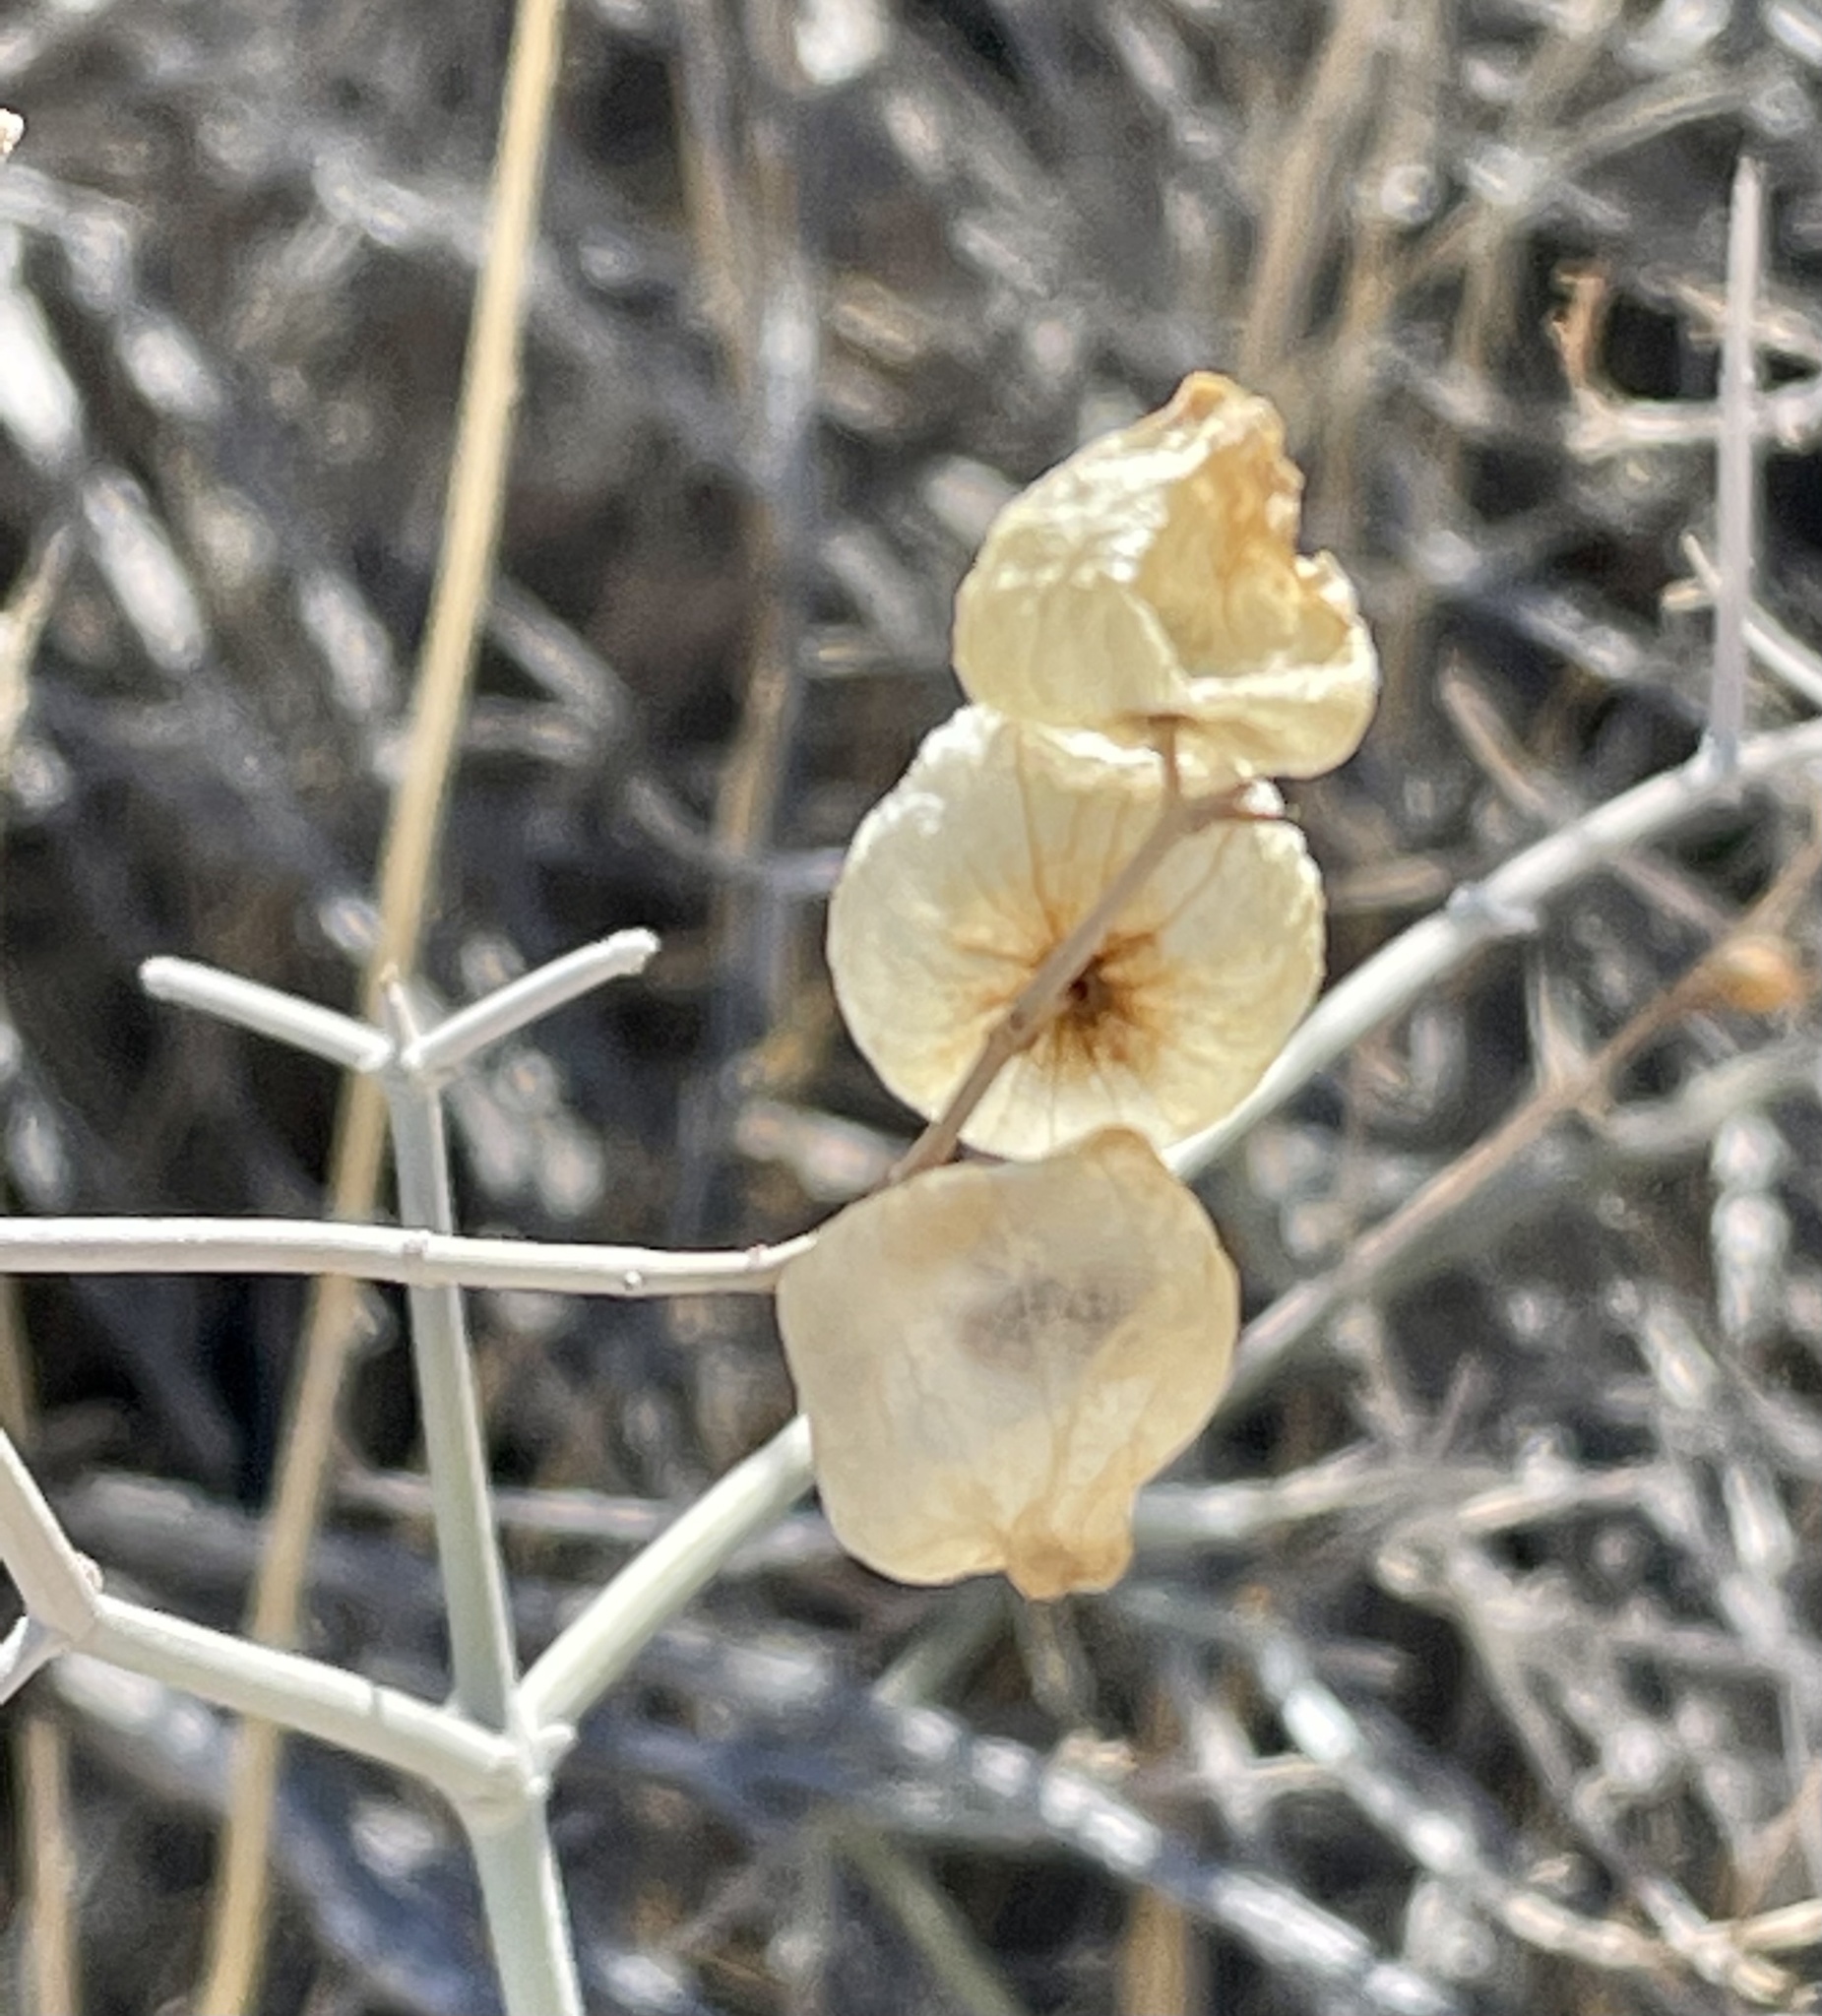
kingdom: Plantae
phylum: Tracheophyta
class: Magnoliopsida
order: Lamiales
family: Lamiaceae
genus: Scutellaria
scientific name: Scutellaria mexicana
